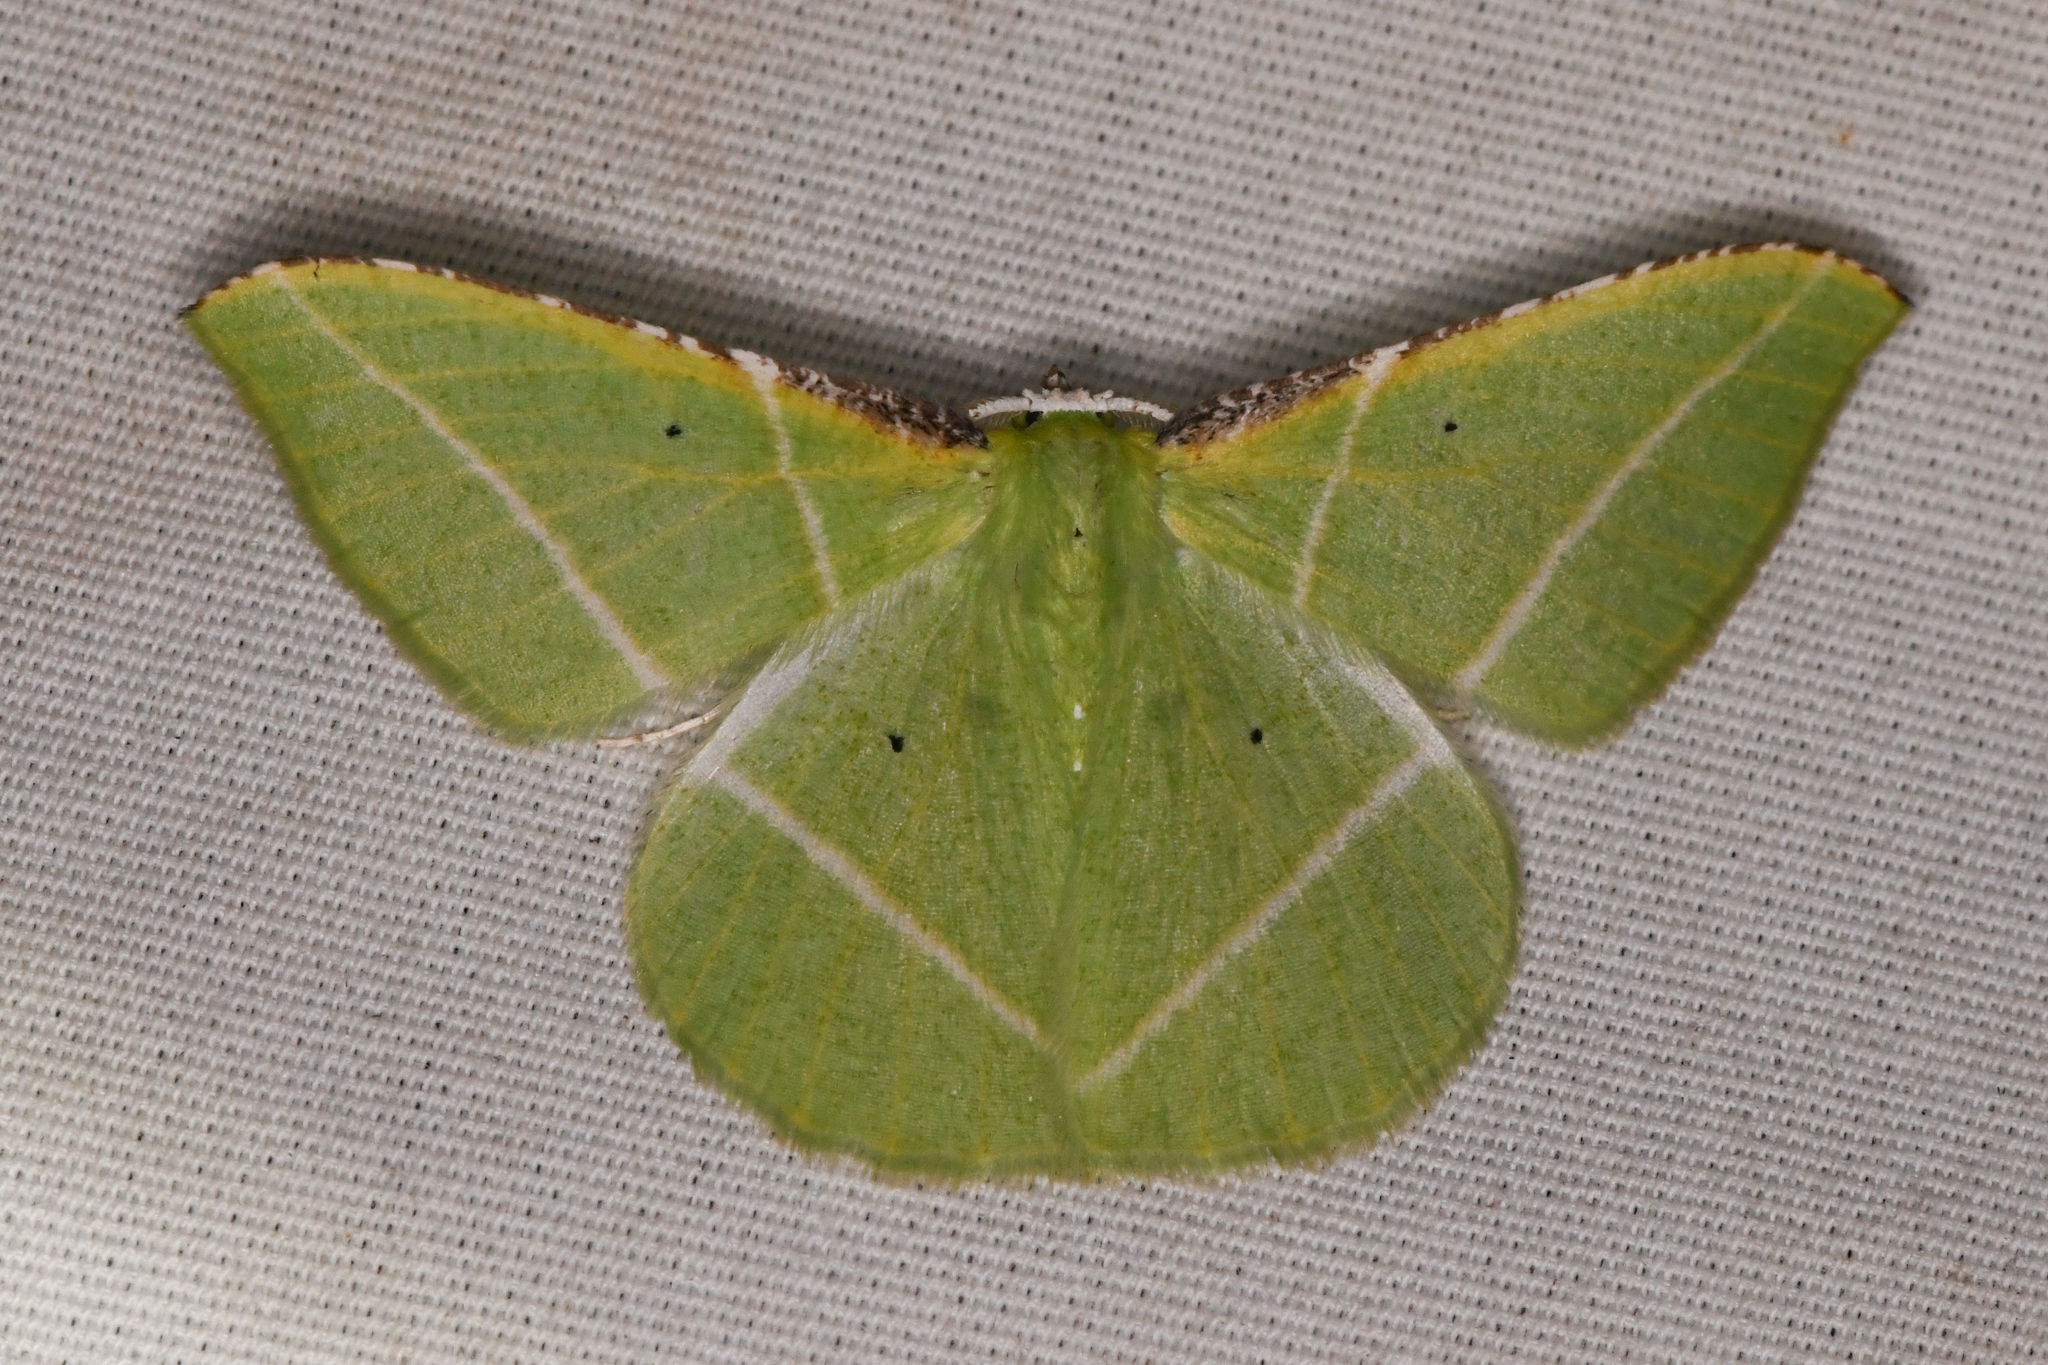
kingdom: Animalia
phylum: Arthropoda
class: Insecta
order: Lepidoptera
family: Geometridae
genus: Dichorda
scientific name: Dichorda illustraria
